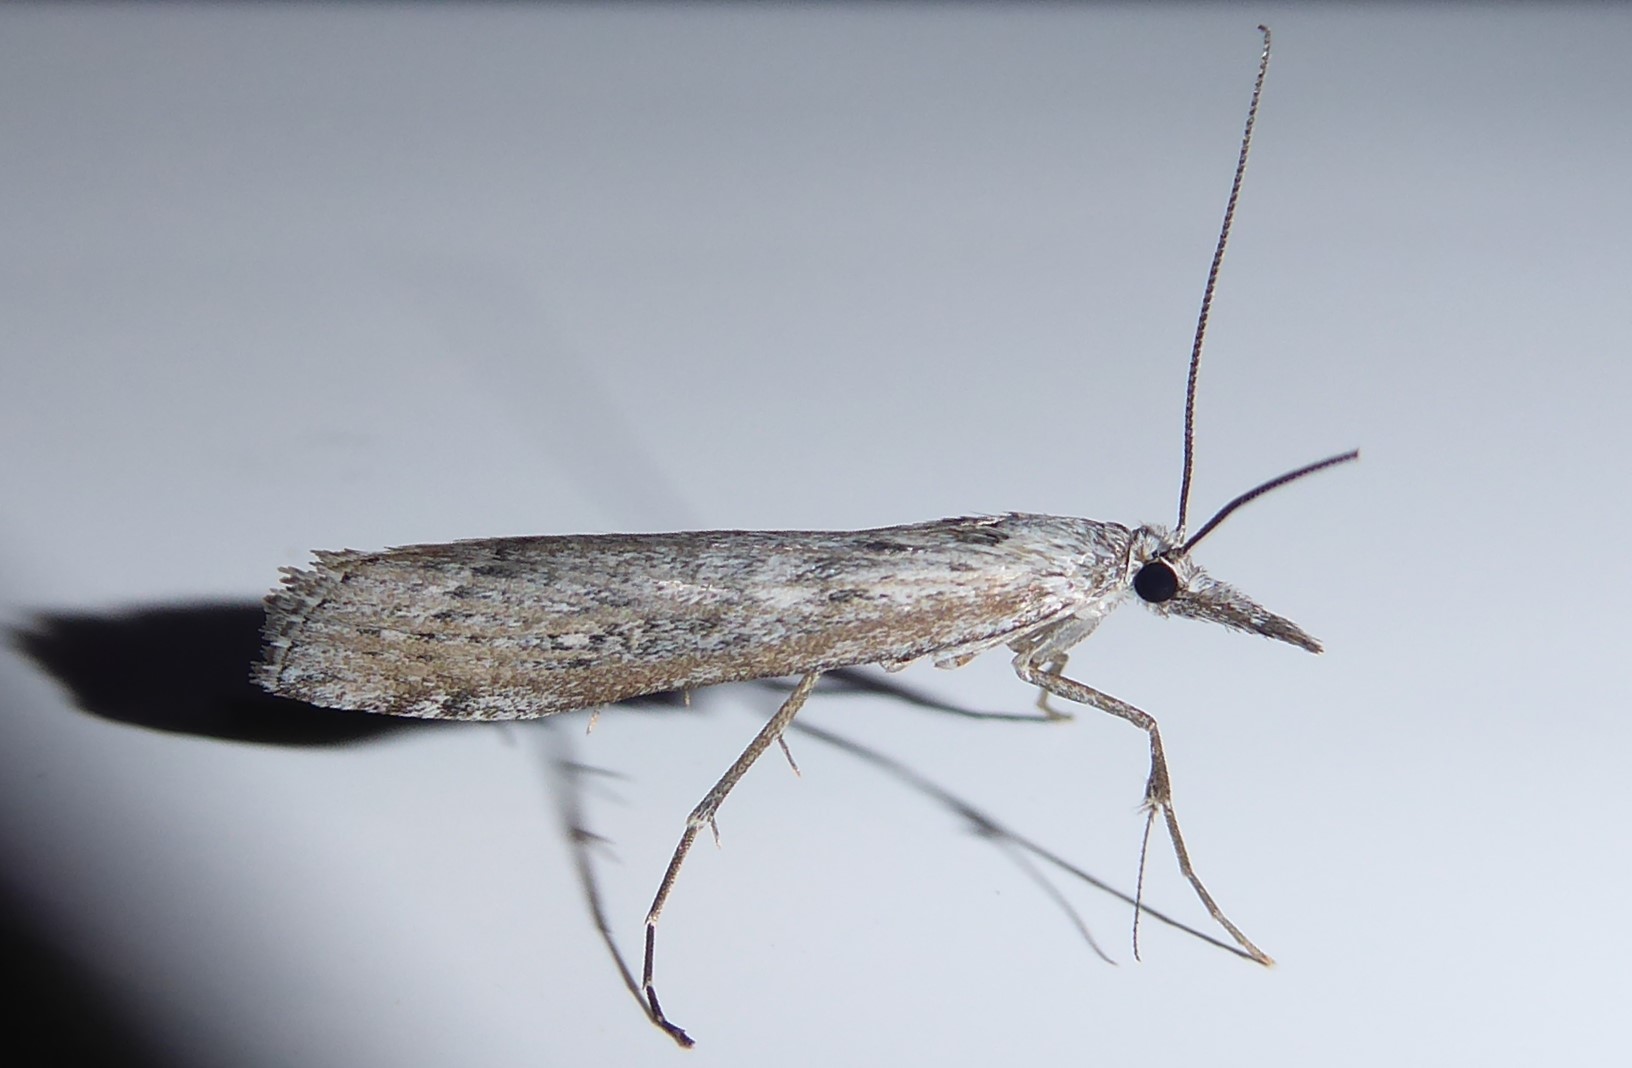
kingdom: Animalia
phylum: Arthropoda
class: Insecta
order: Lepidoptera
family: Crambidae
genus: Orocrambus
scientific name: Orocrambus cyclopicus
